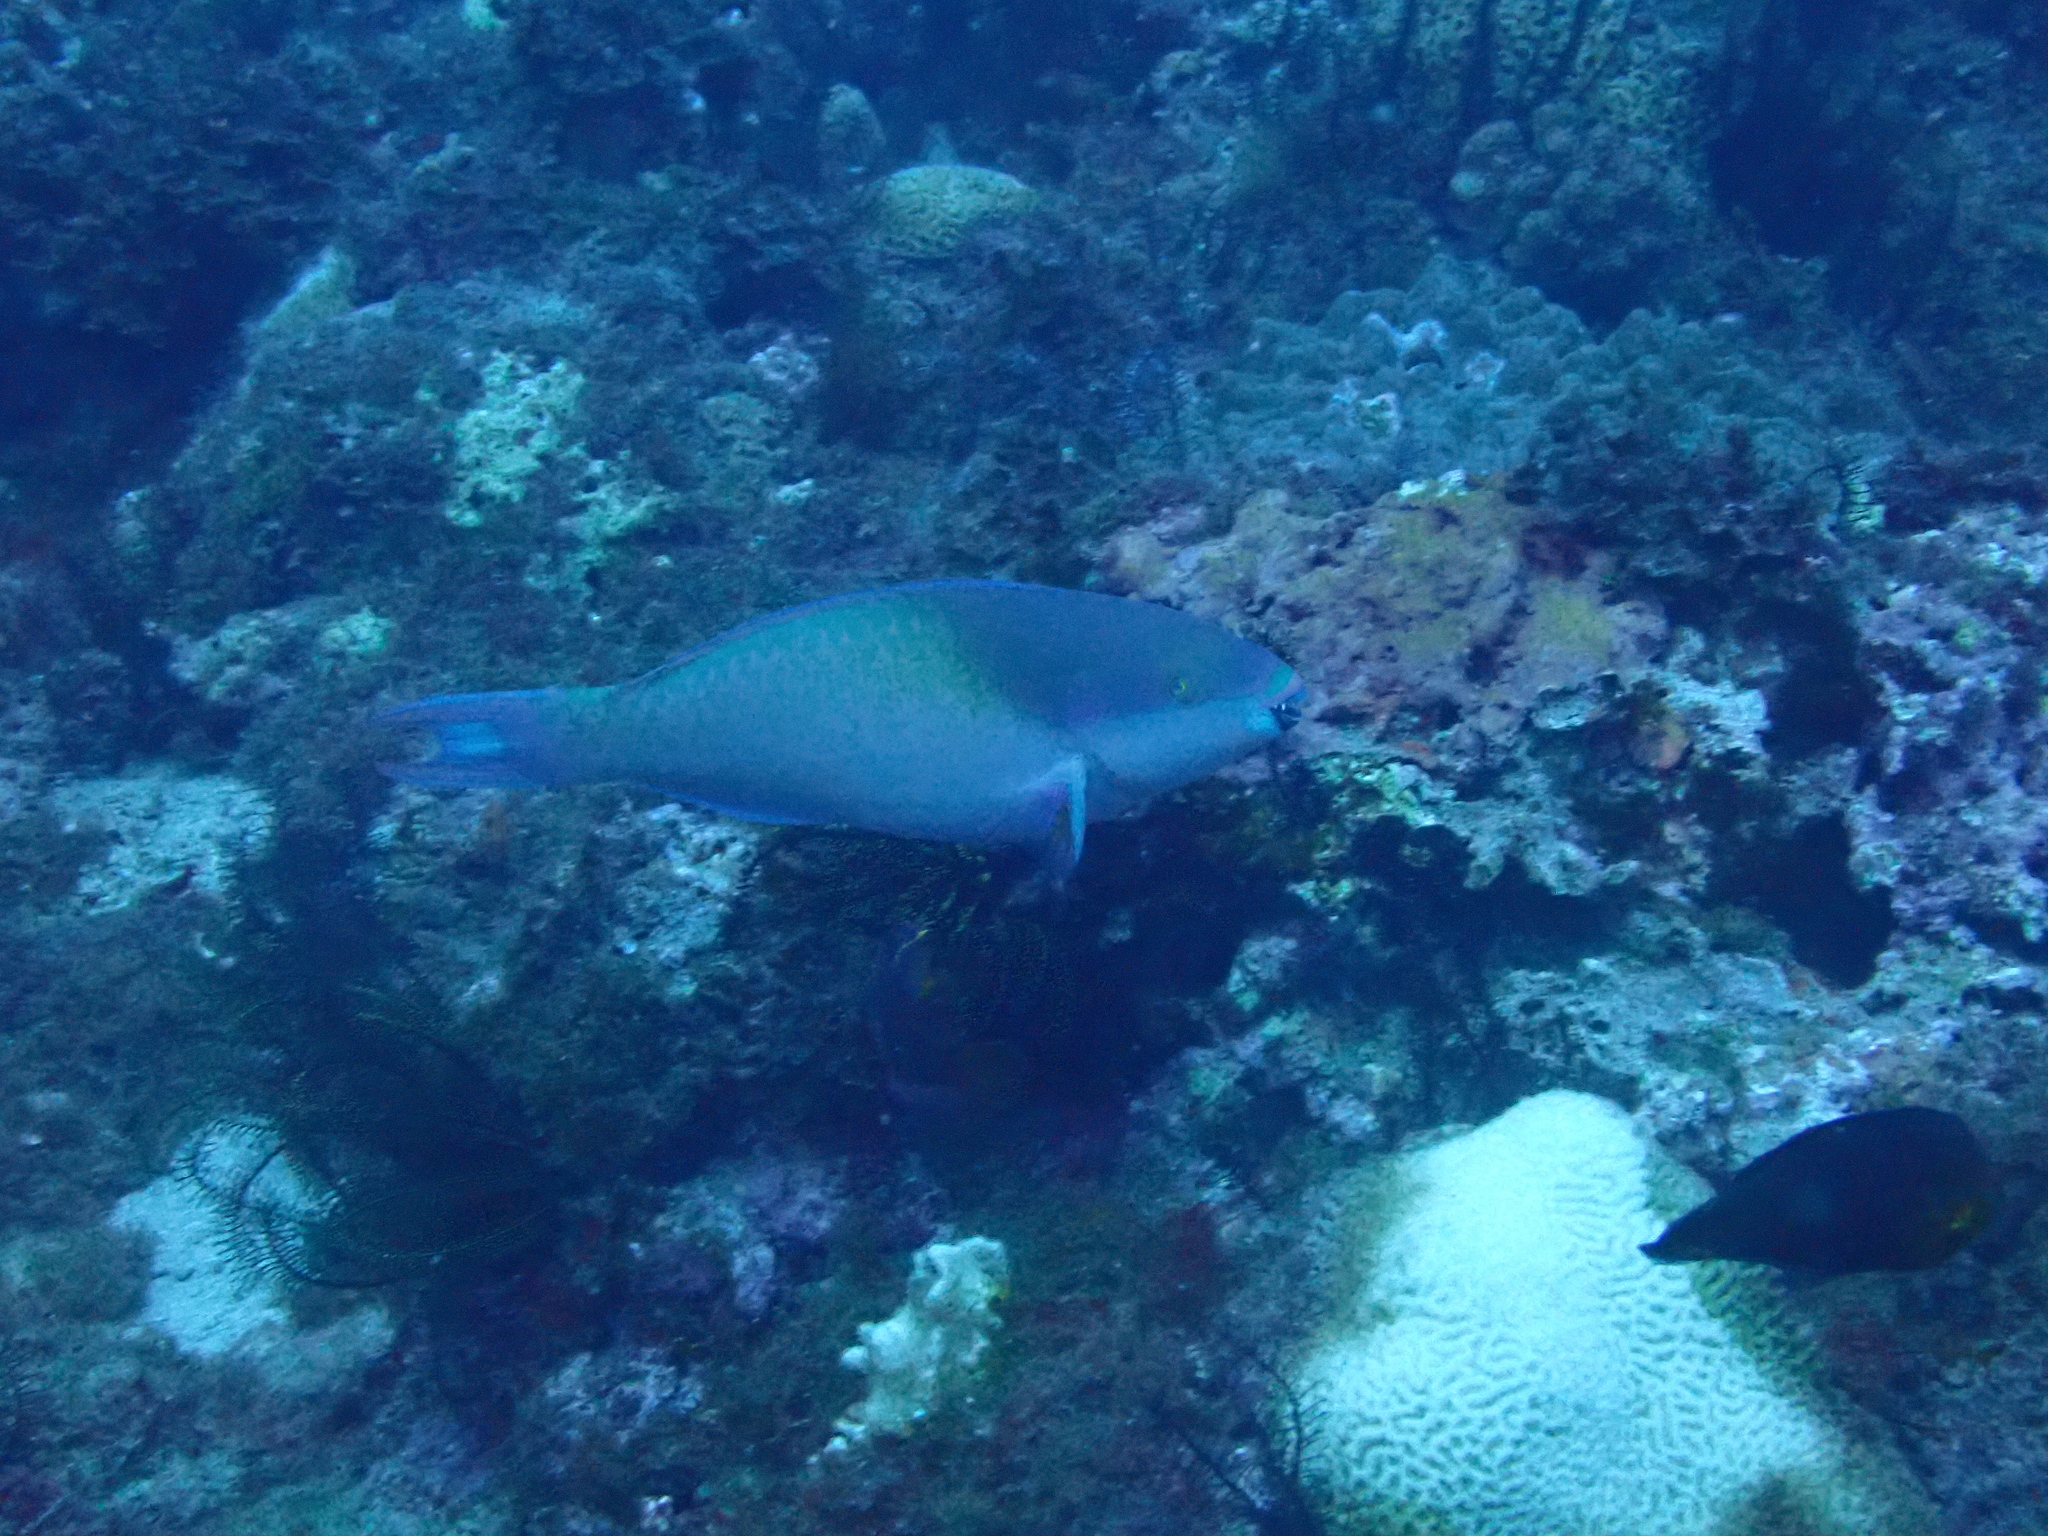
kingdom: Animalia
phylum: Chordata
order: Perciformes
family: Scaridae
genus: Scarus
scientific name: Scarus forsteni
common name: Forsten's parrotfish
